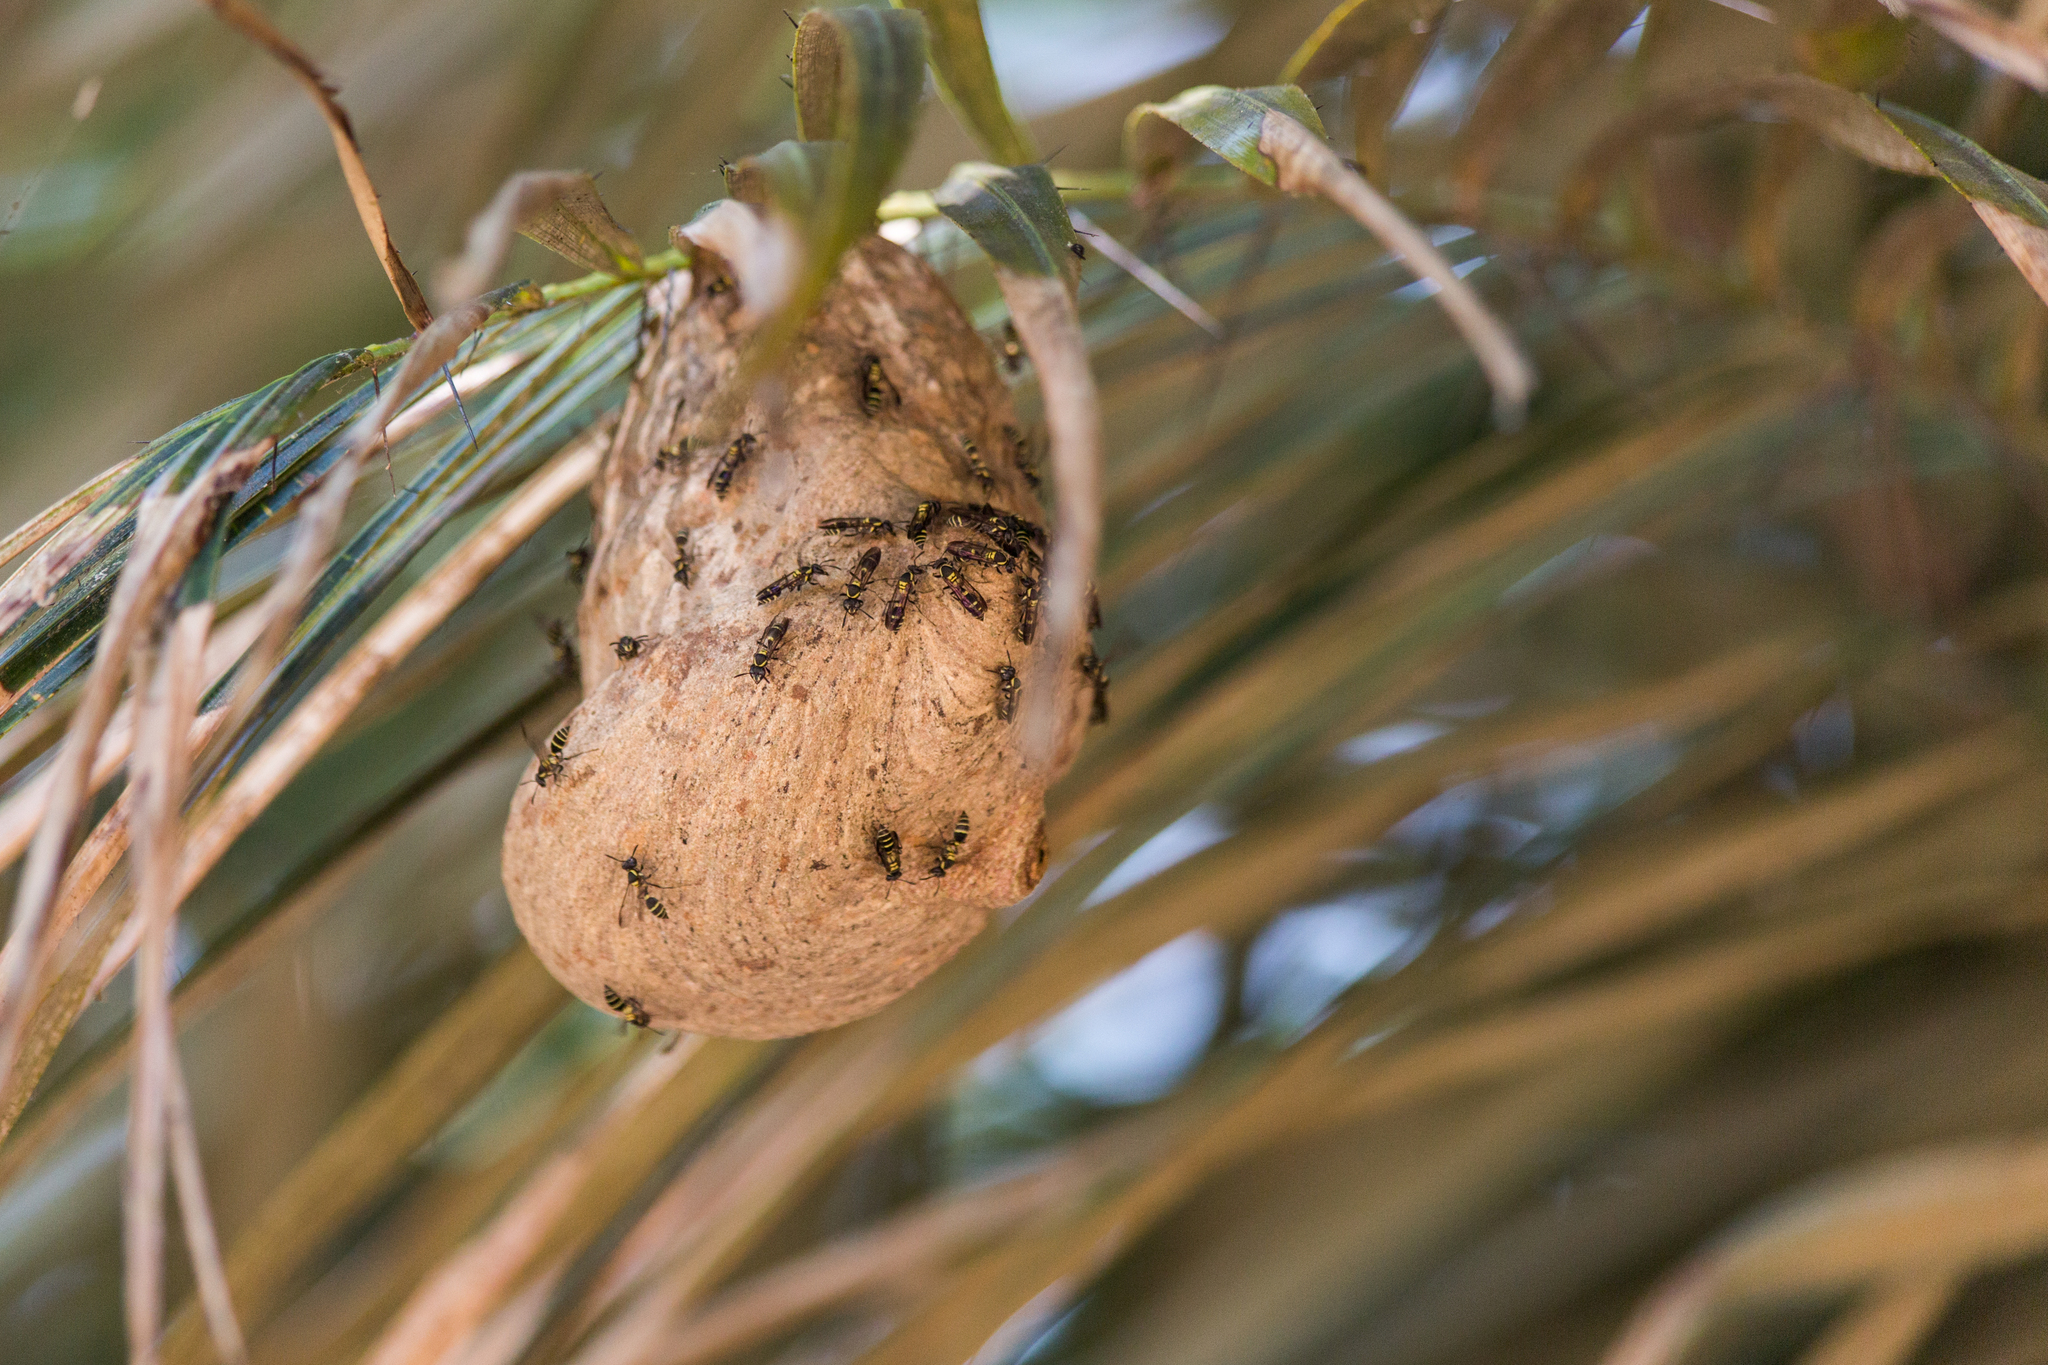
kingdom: Animalia
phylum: Arthropoda
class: Insecta
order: Hymenoptera
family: Eumenidae
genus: Polybia
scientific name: Polybia occidentalis
